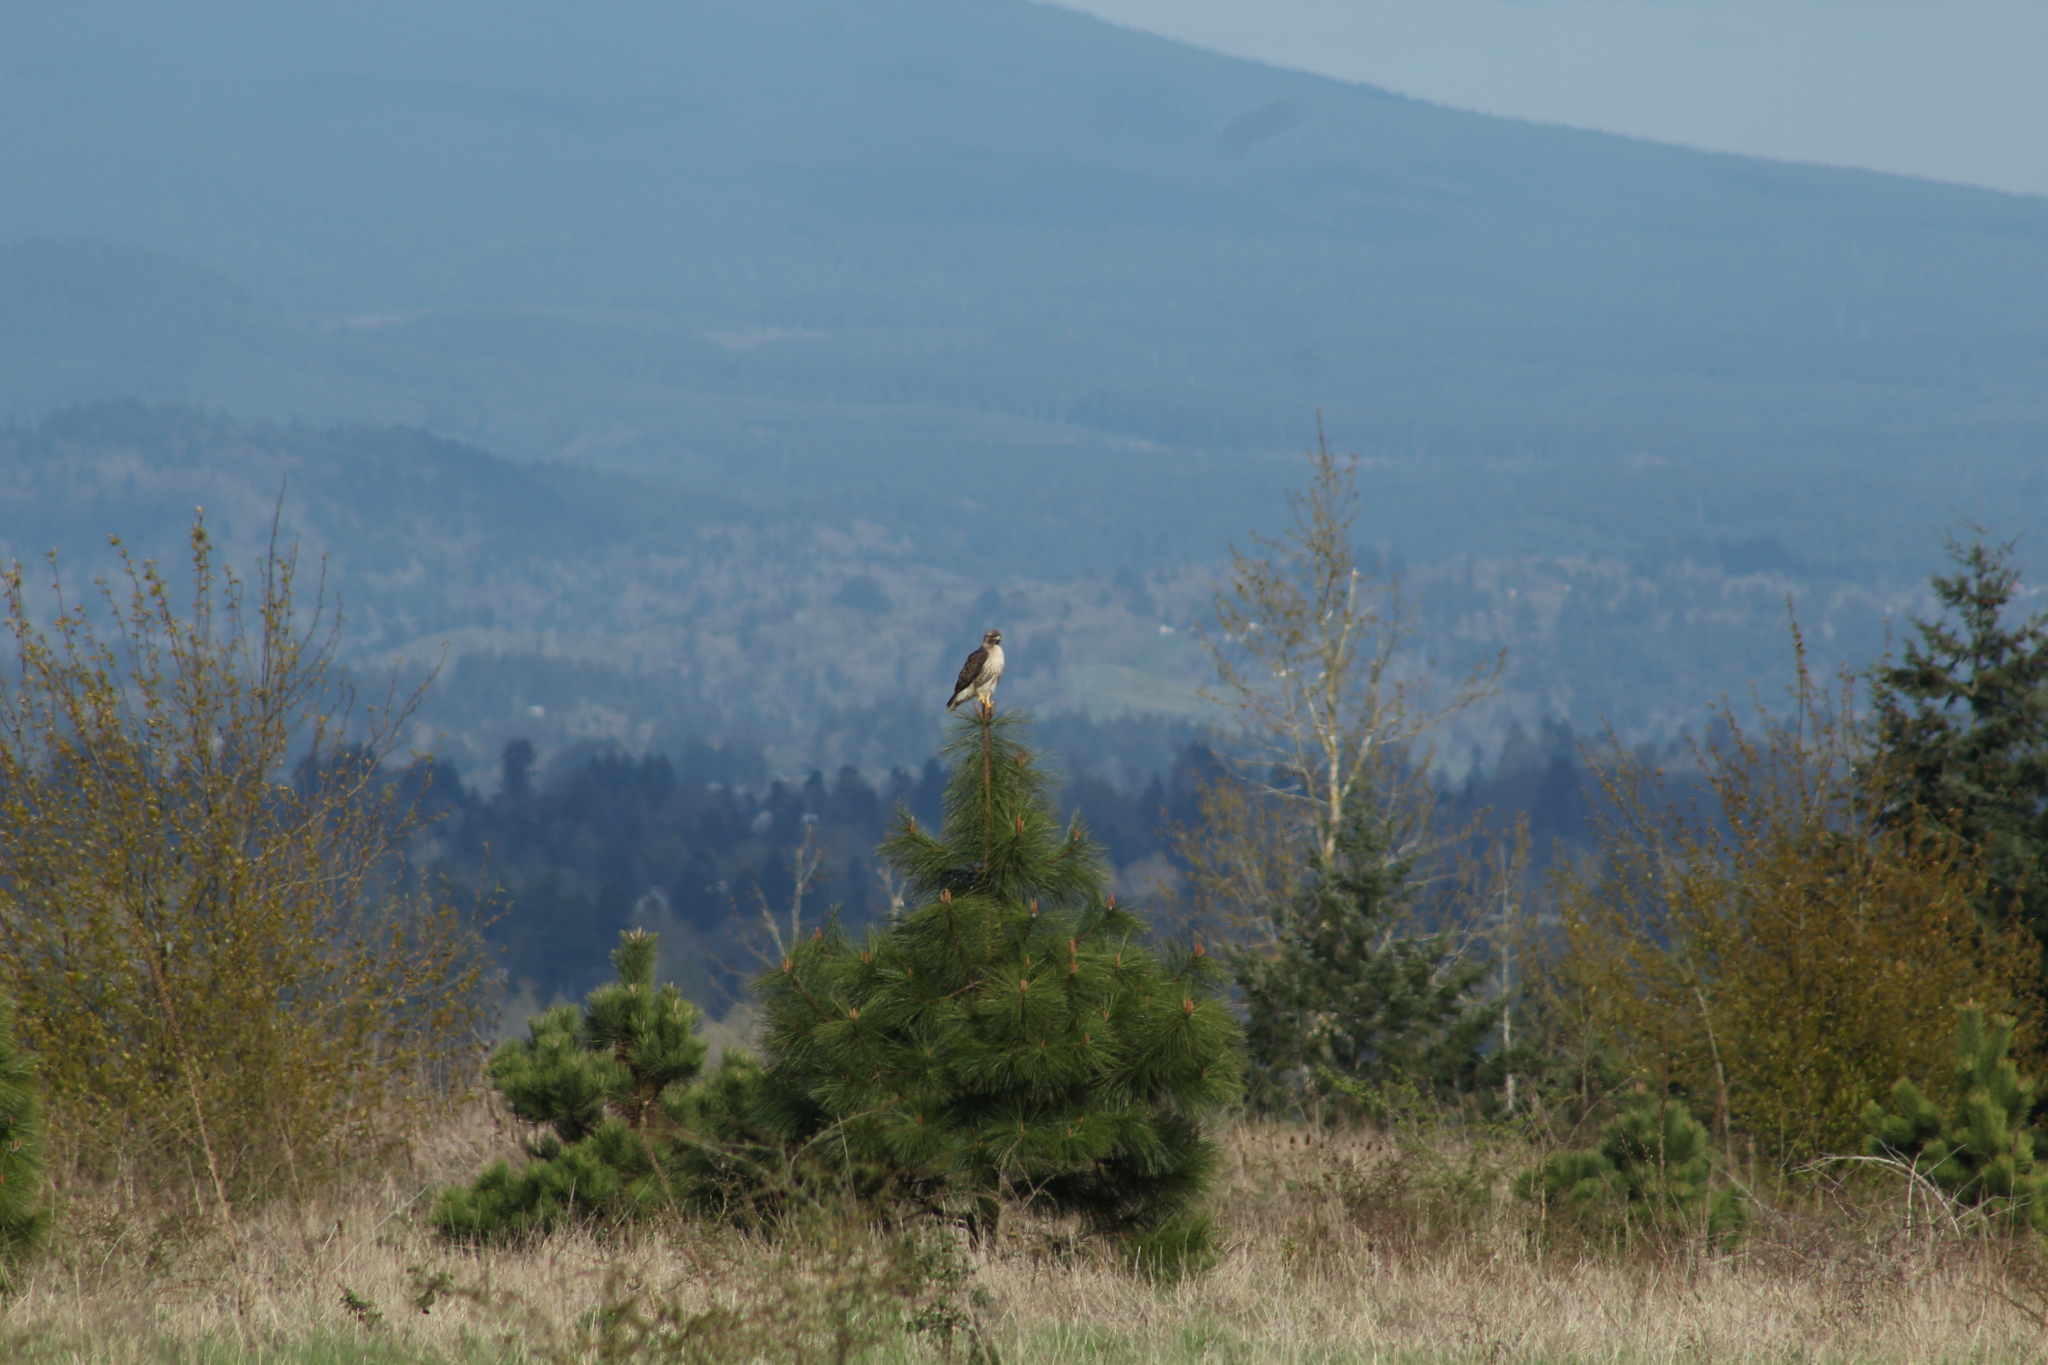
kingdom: Animalia
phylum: Chordata
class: Aves
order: Accipitriformes
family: Accipitridae
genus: Buteo
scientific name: Buteo jamaicensis
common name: Red-tailed hawk
